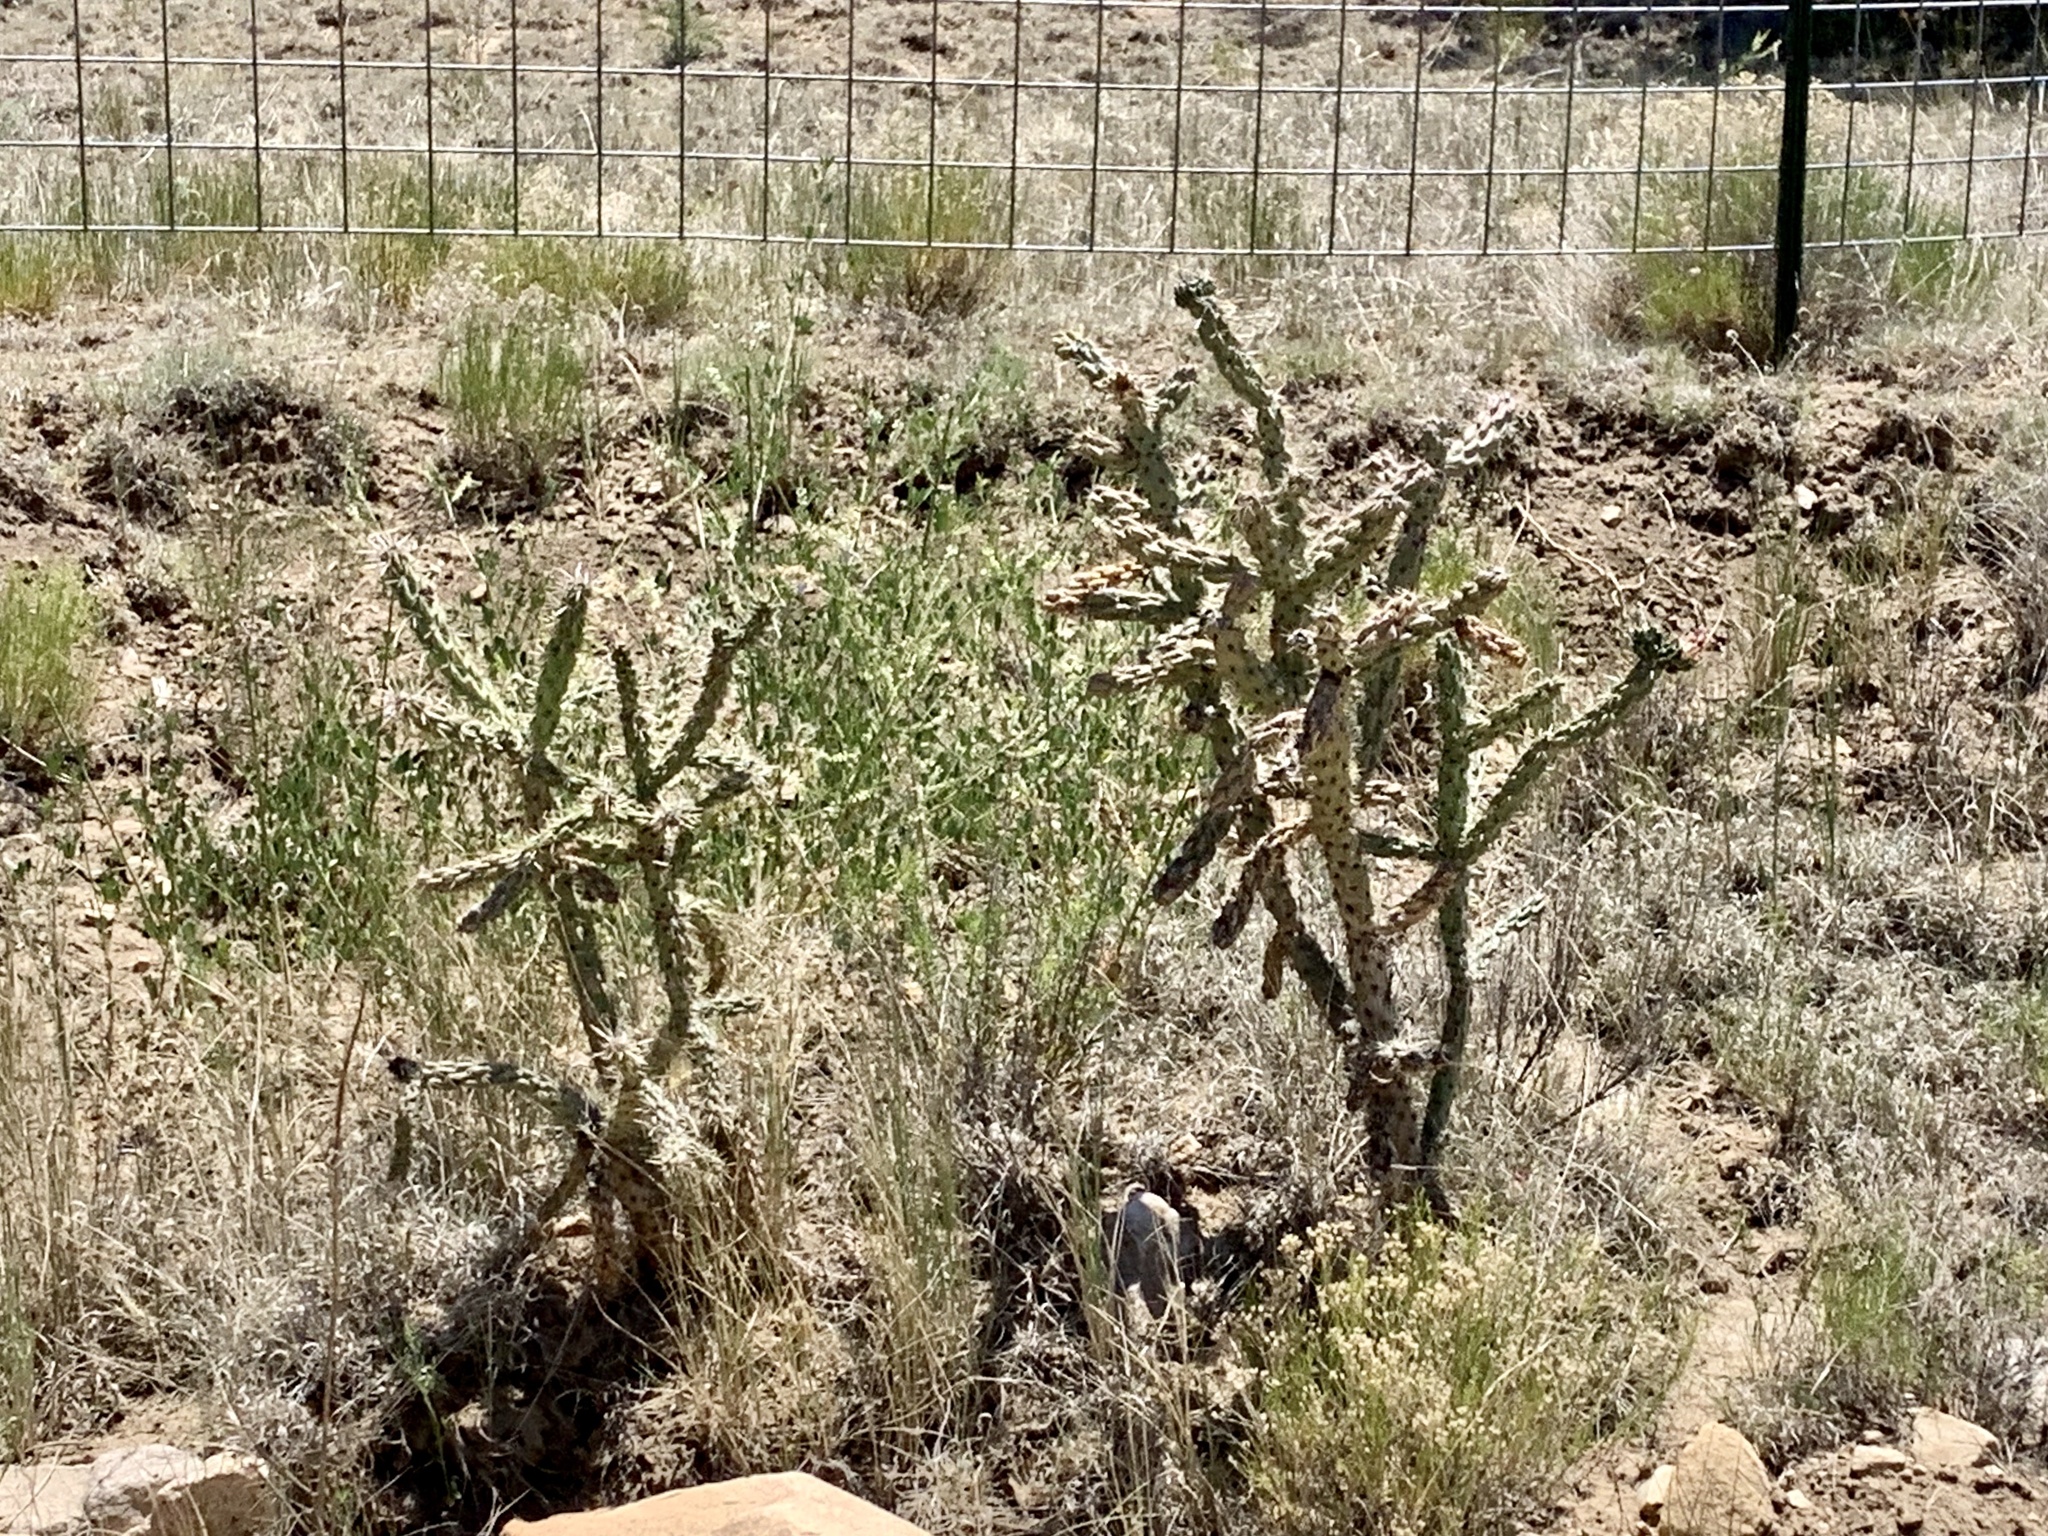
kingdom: Plantae
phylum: Tracheophyta
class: Magnoliopsida
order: Caryophyllales
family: Cactaceae
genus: Cylindropuntia
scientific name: Cylindropuntia imbricata
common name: Candelabrum cactus
